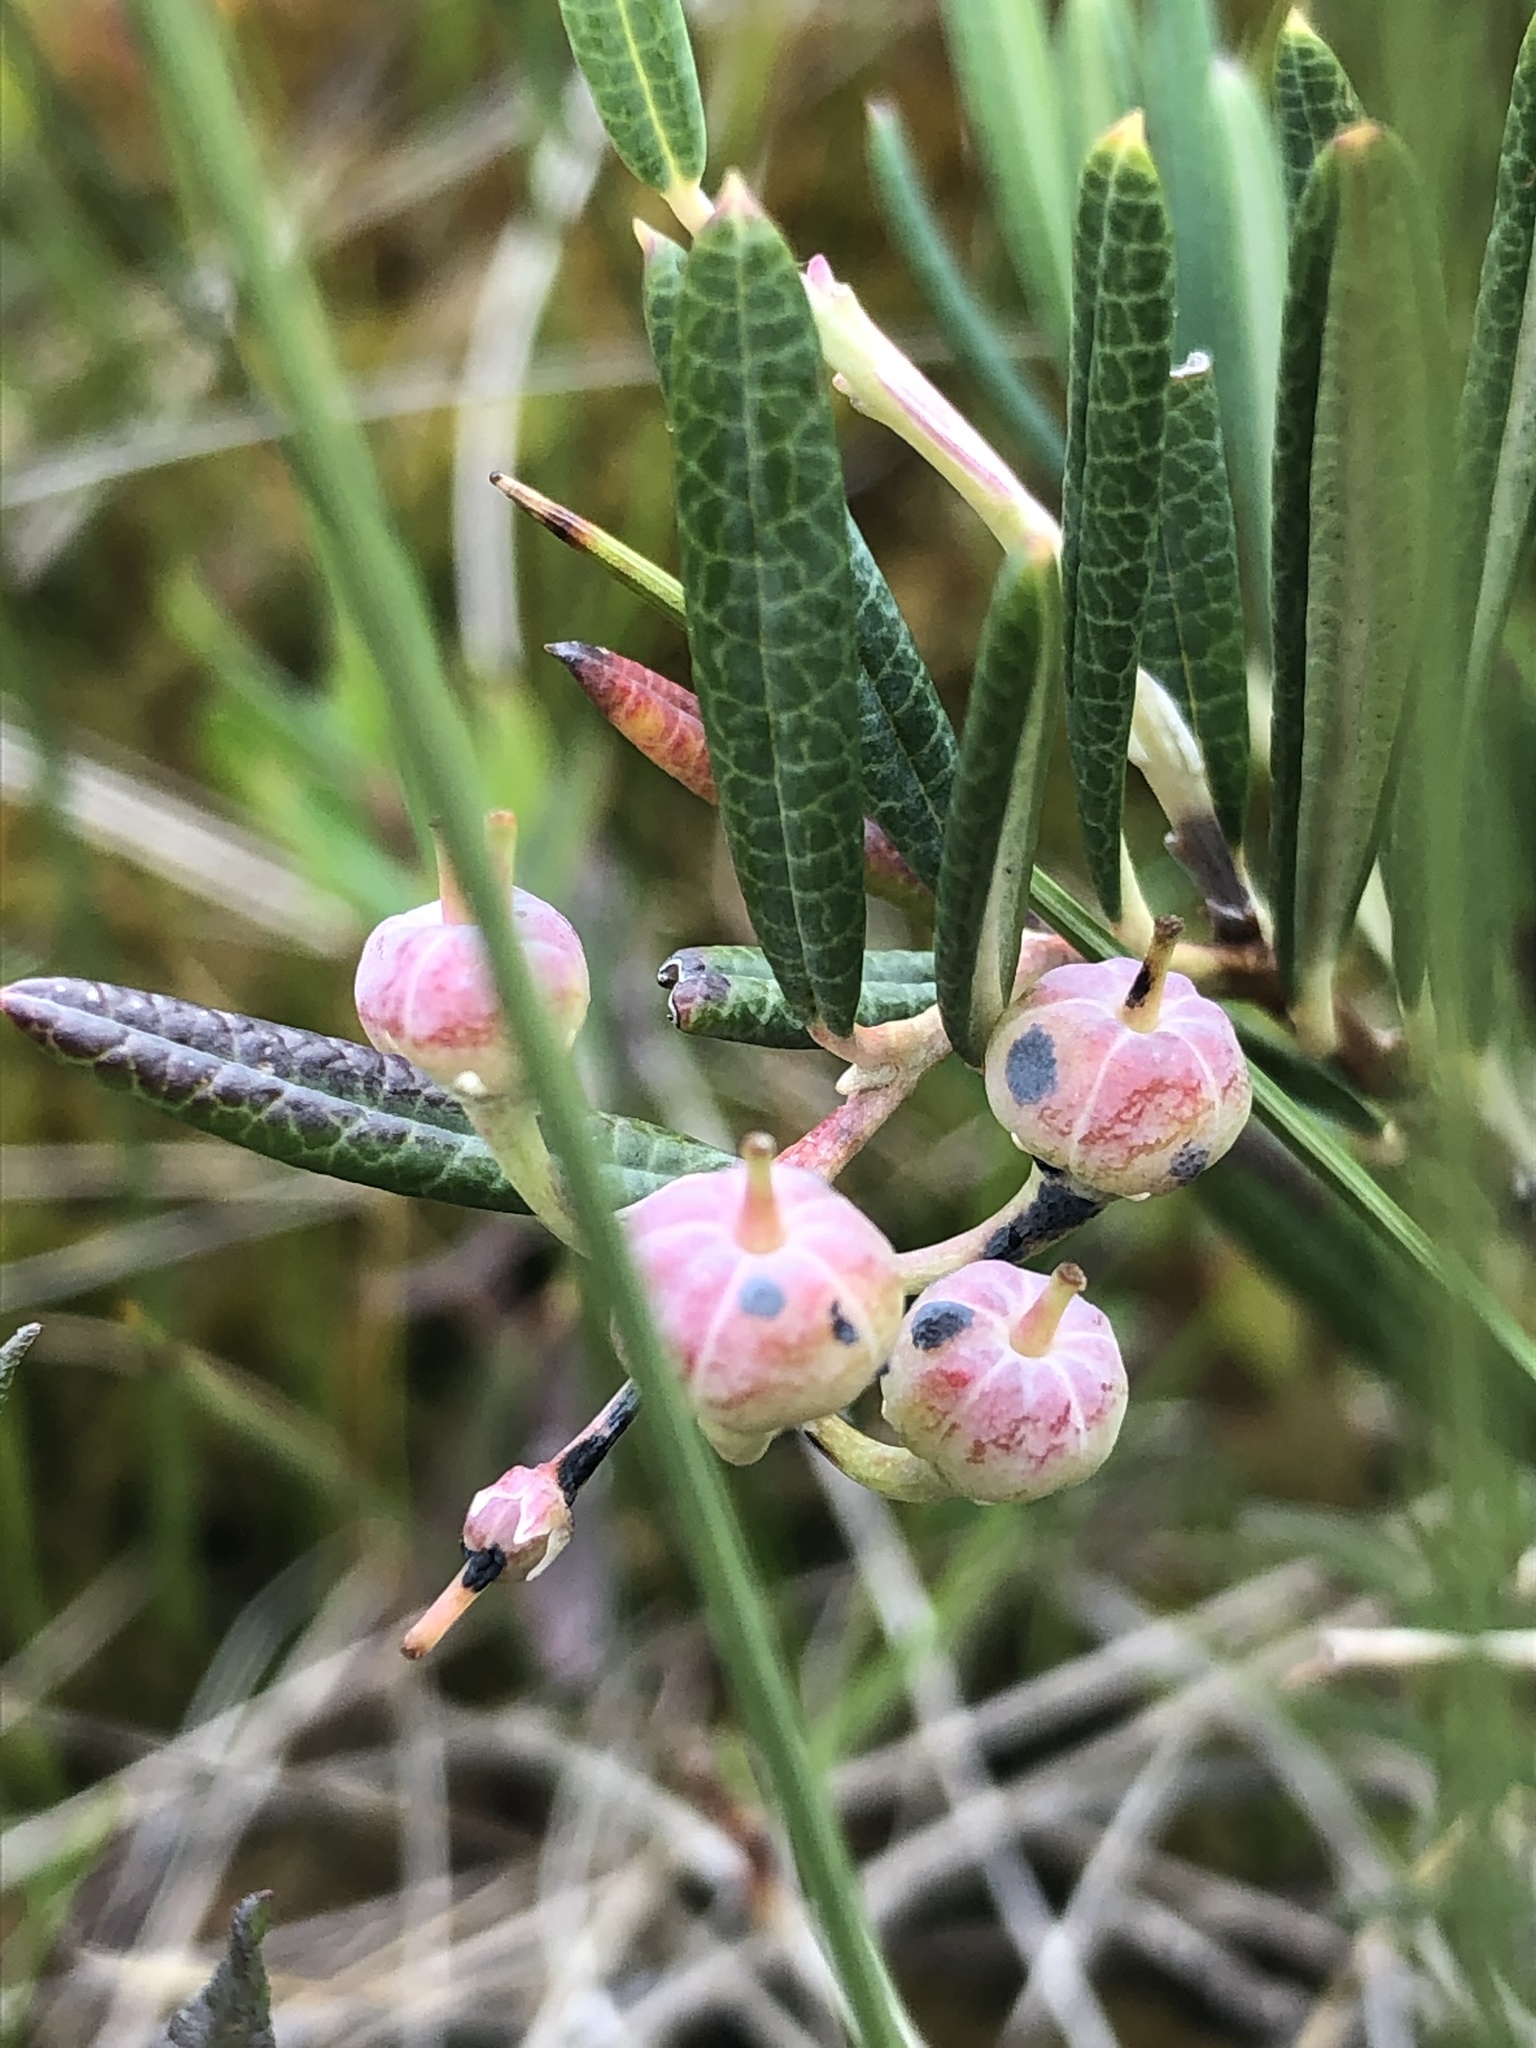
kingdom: Plantae
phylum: Tracheophyta
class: Magnoliopsida
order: Ericales
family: Ericaceae
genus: Andromeda
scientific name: Andromeda polifolia
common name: Bog-rosemary
